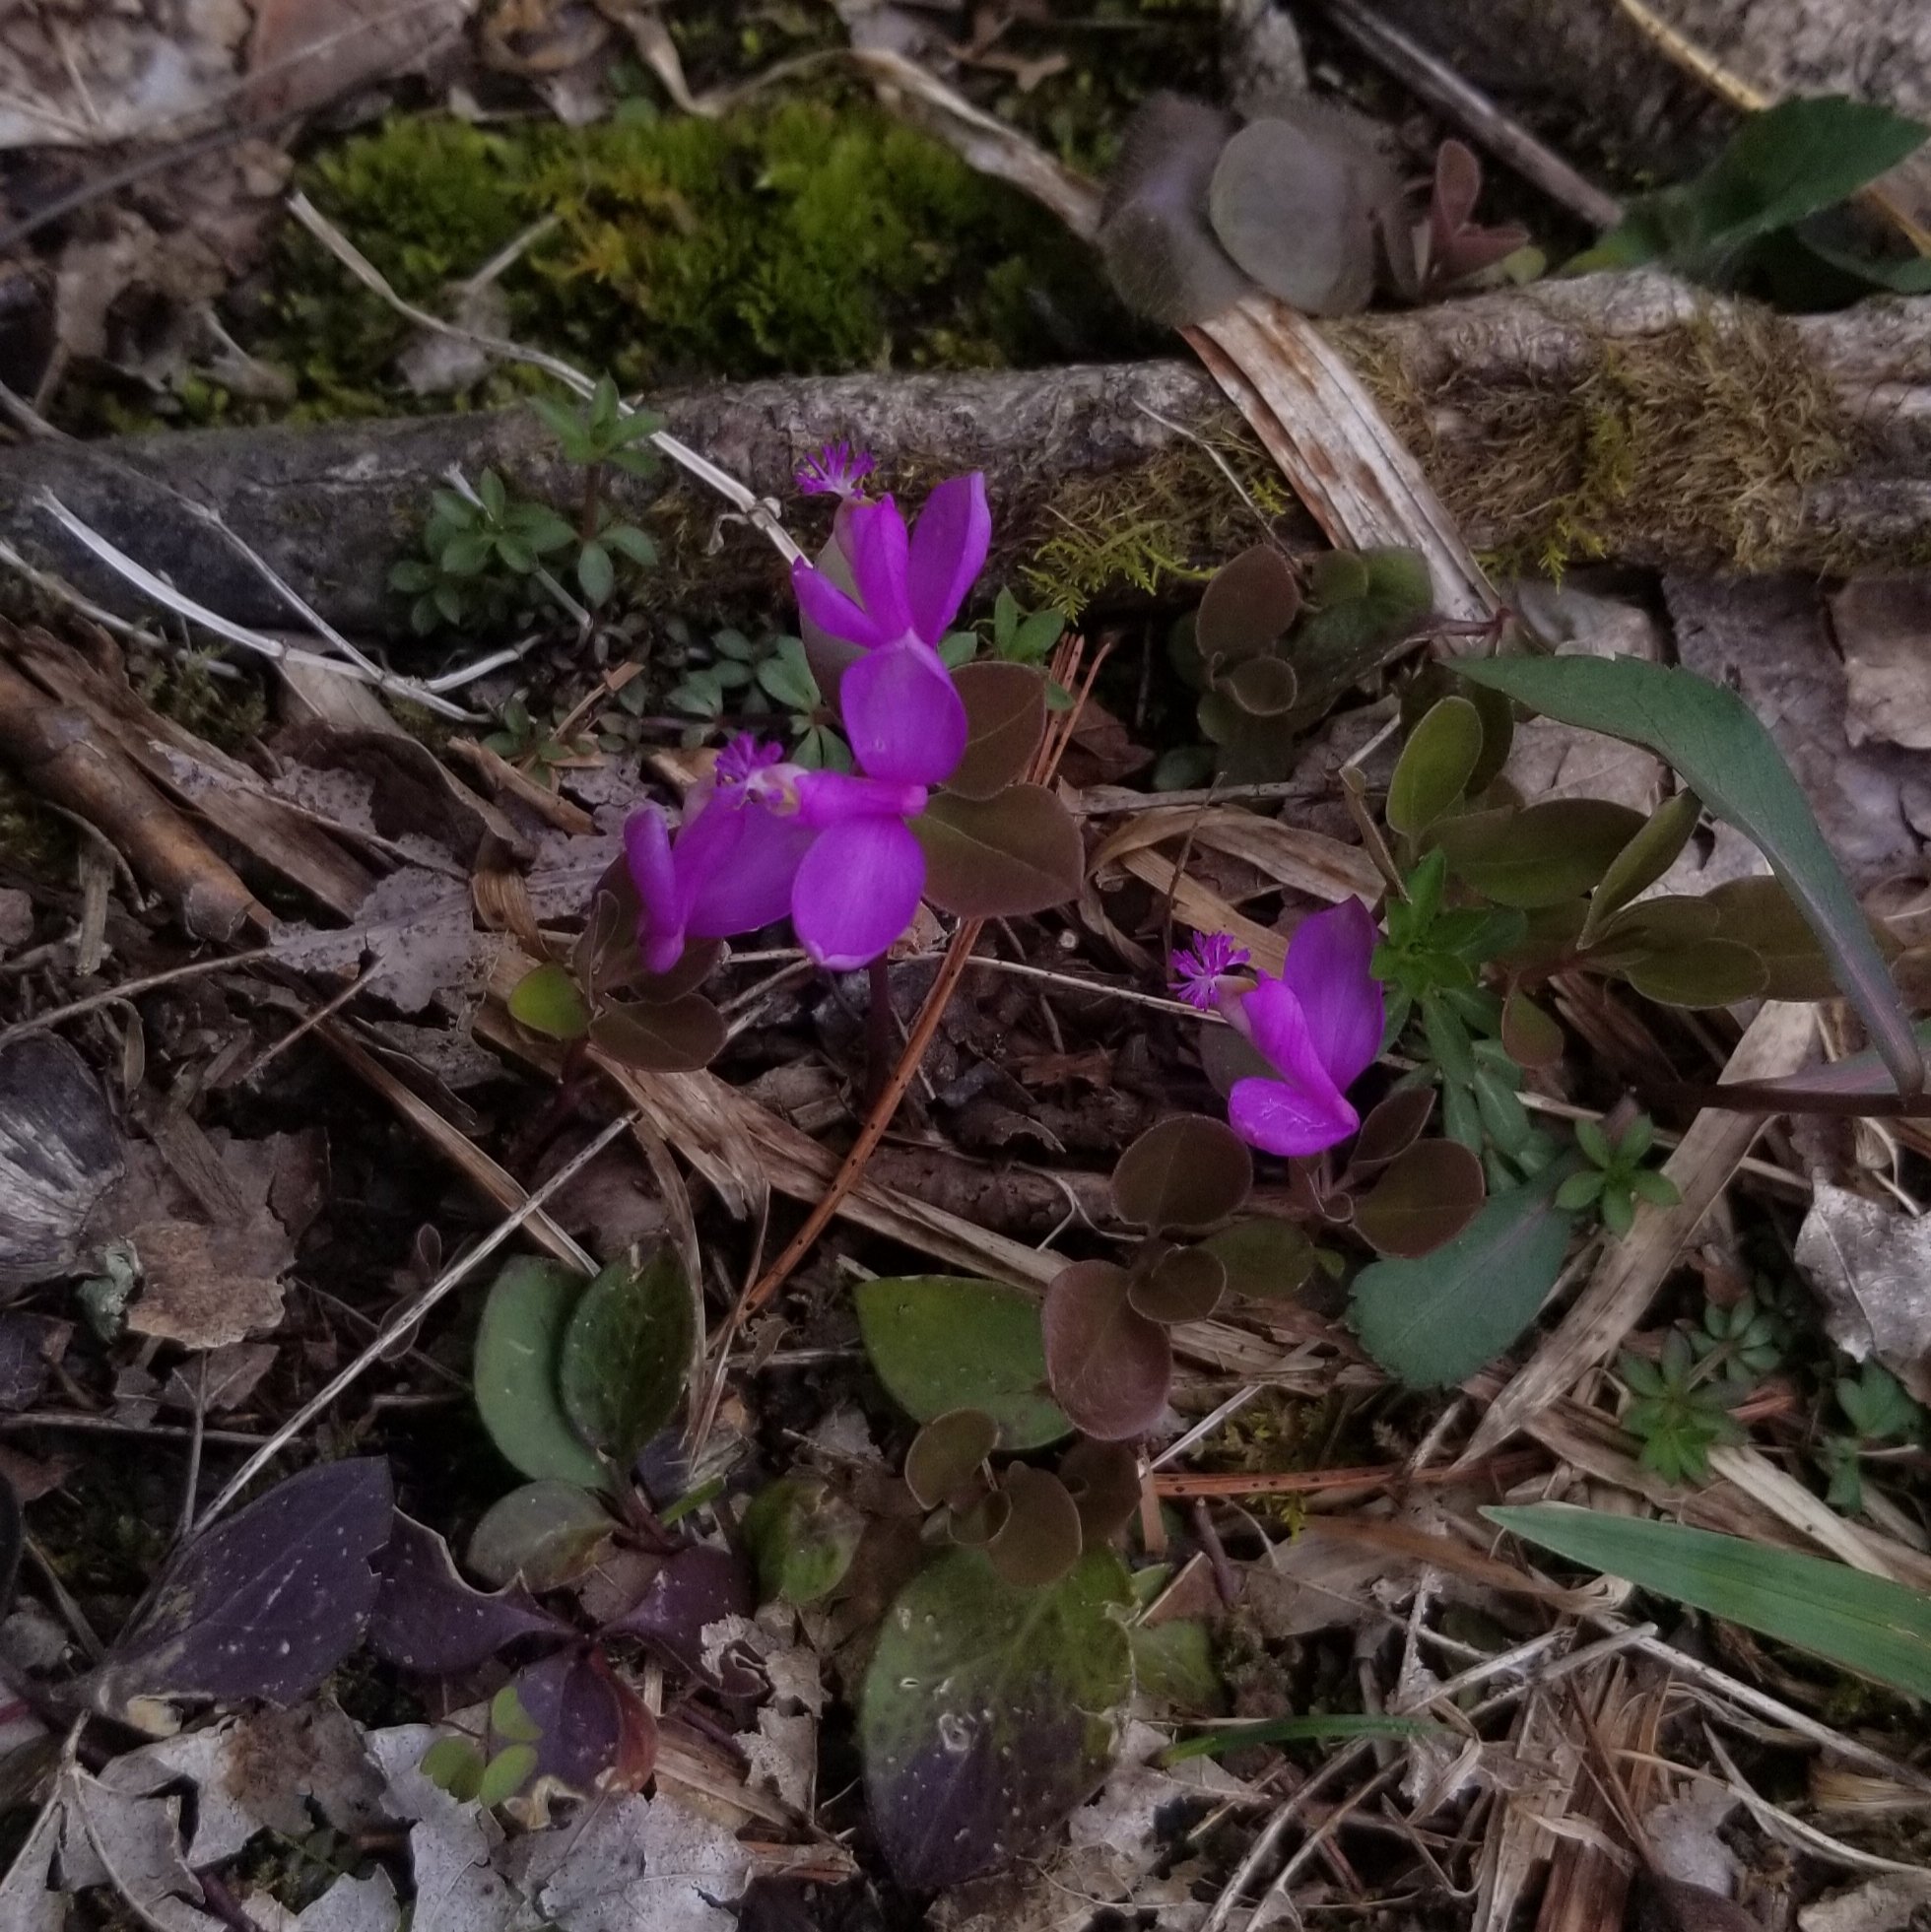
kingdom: Plantae
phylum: Tracheophyta
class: Magnoliopsida
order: Fabales
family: Polygalaceae
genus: Polygaloides
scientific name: Polygaloides paucifolia
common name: Bird-on-the-wing
